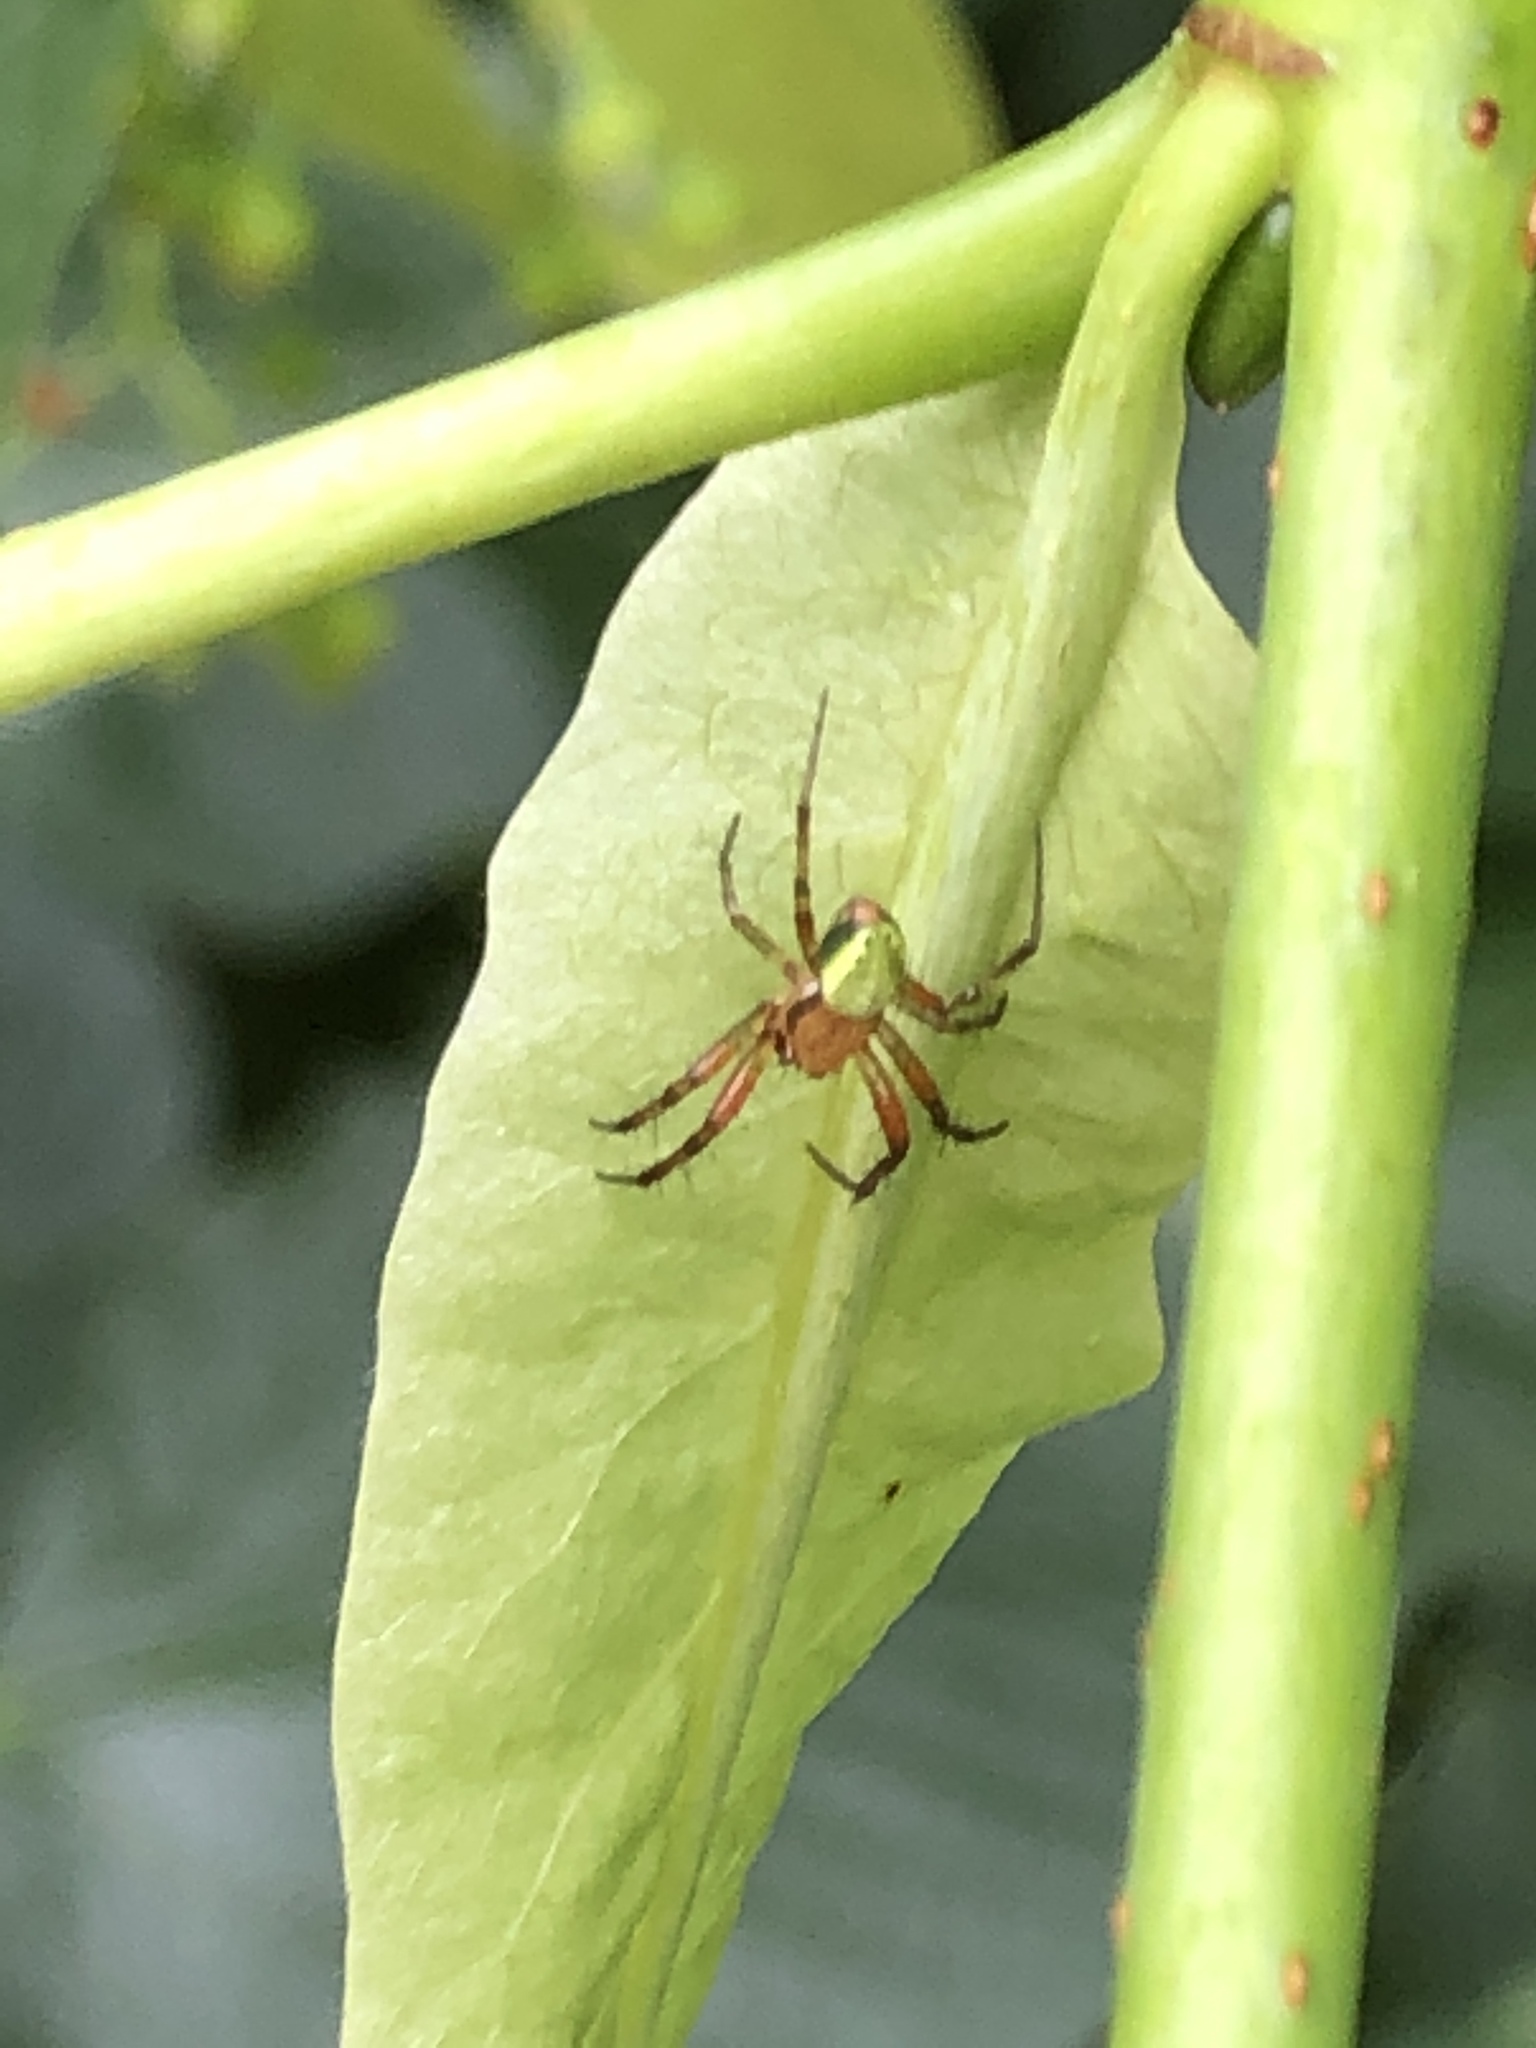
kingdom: Animalia
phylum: Arthropoda
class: Arachnida
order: Araneae
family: Araneidae
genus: Araniella
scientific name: Araniella
